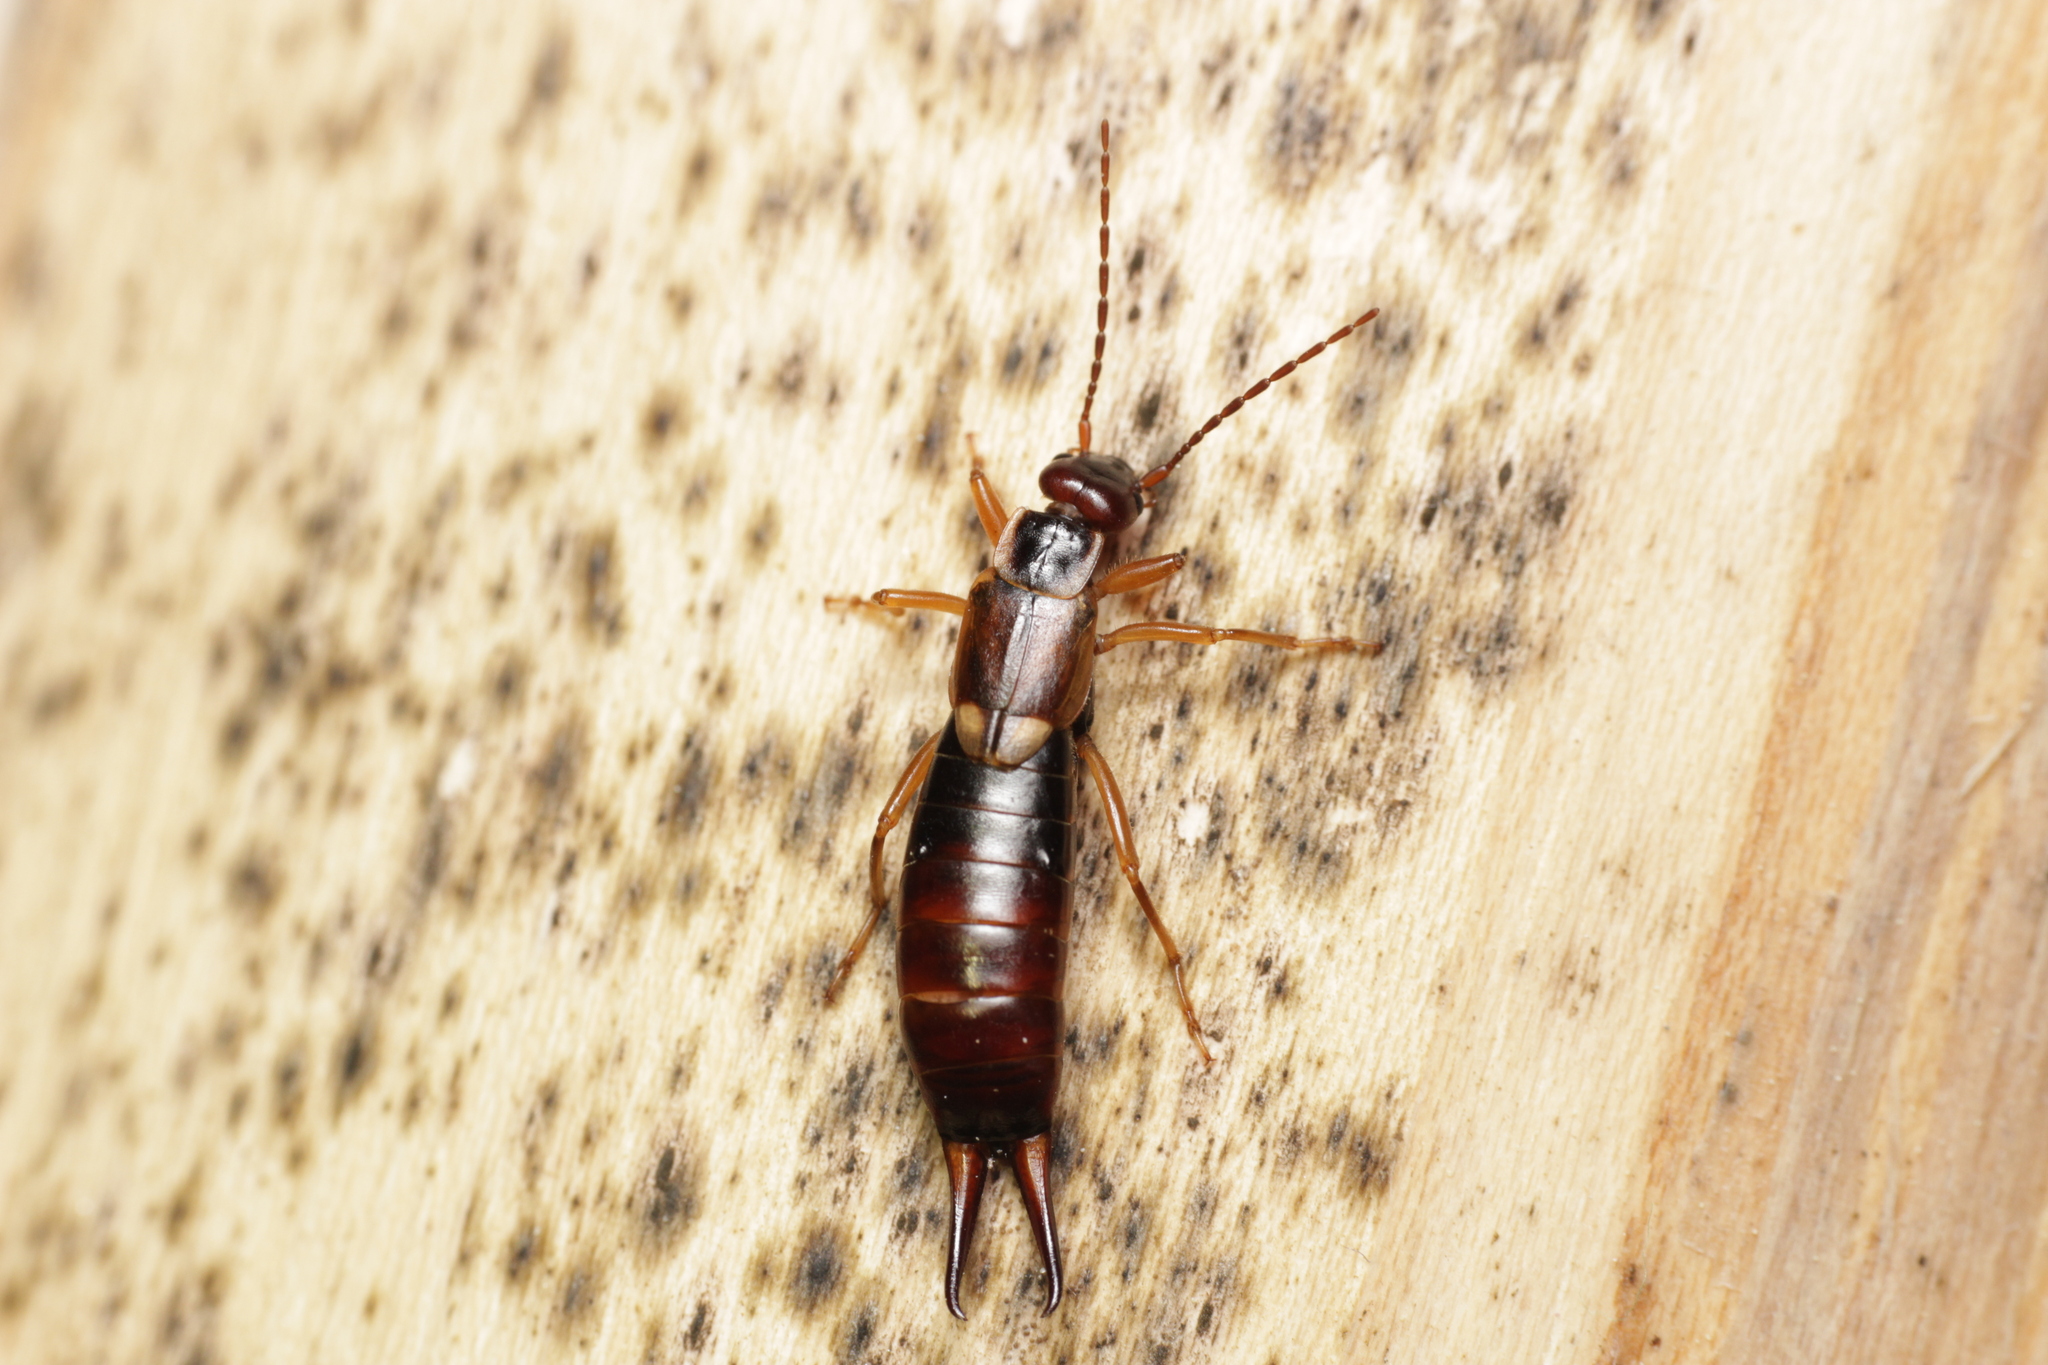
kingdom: Animalia
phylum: Arthropoda
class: Insecta
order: Dermaptera
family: Forficulidae
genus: Forficula
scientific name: Forficula
